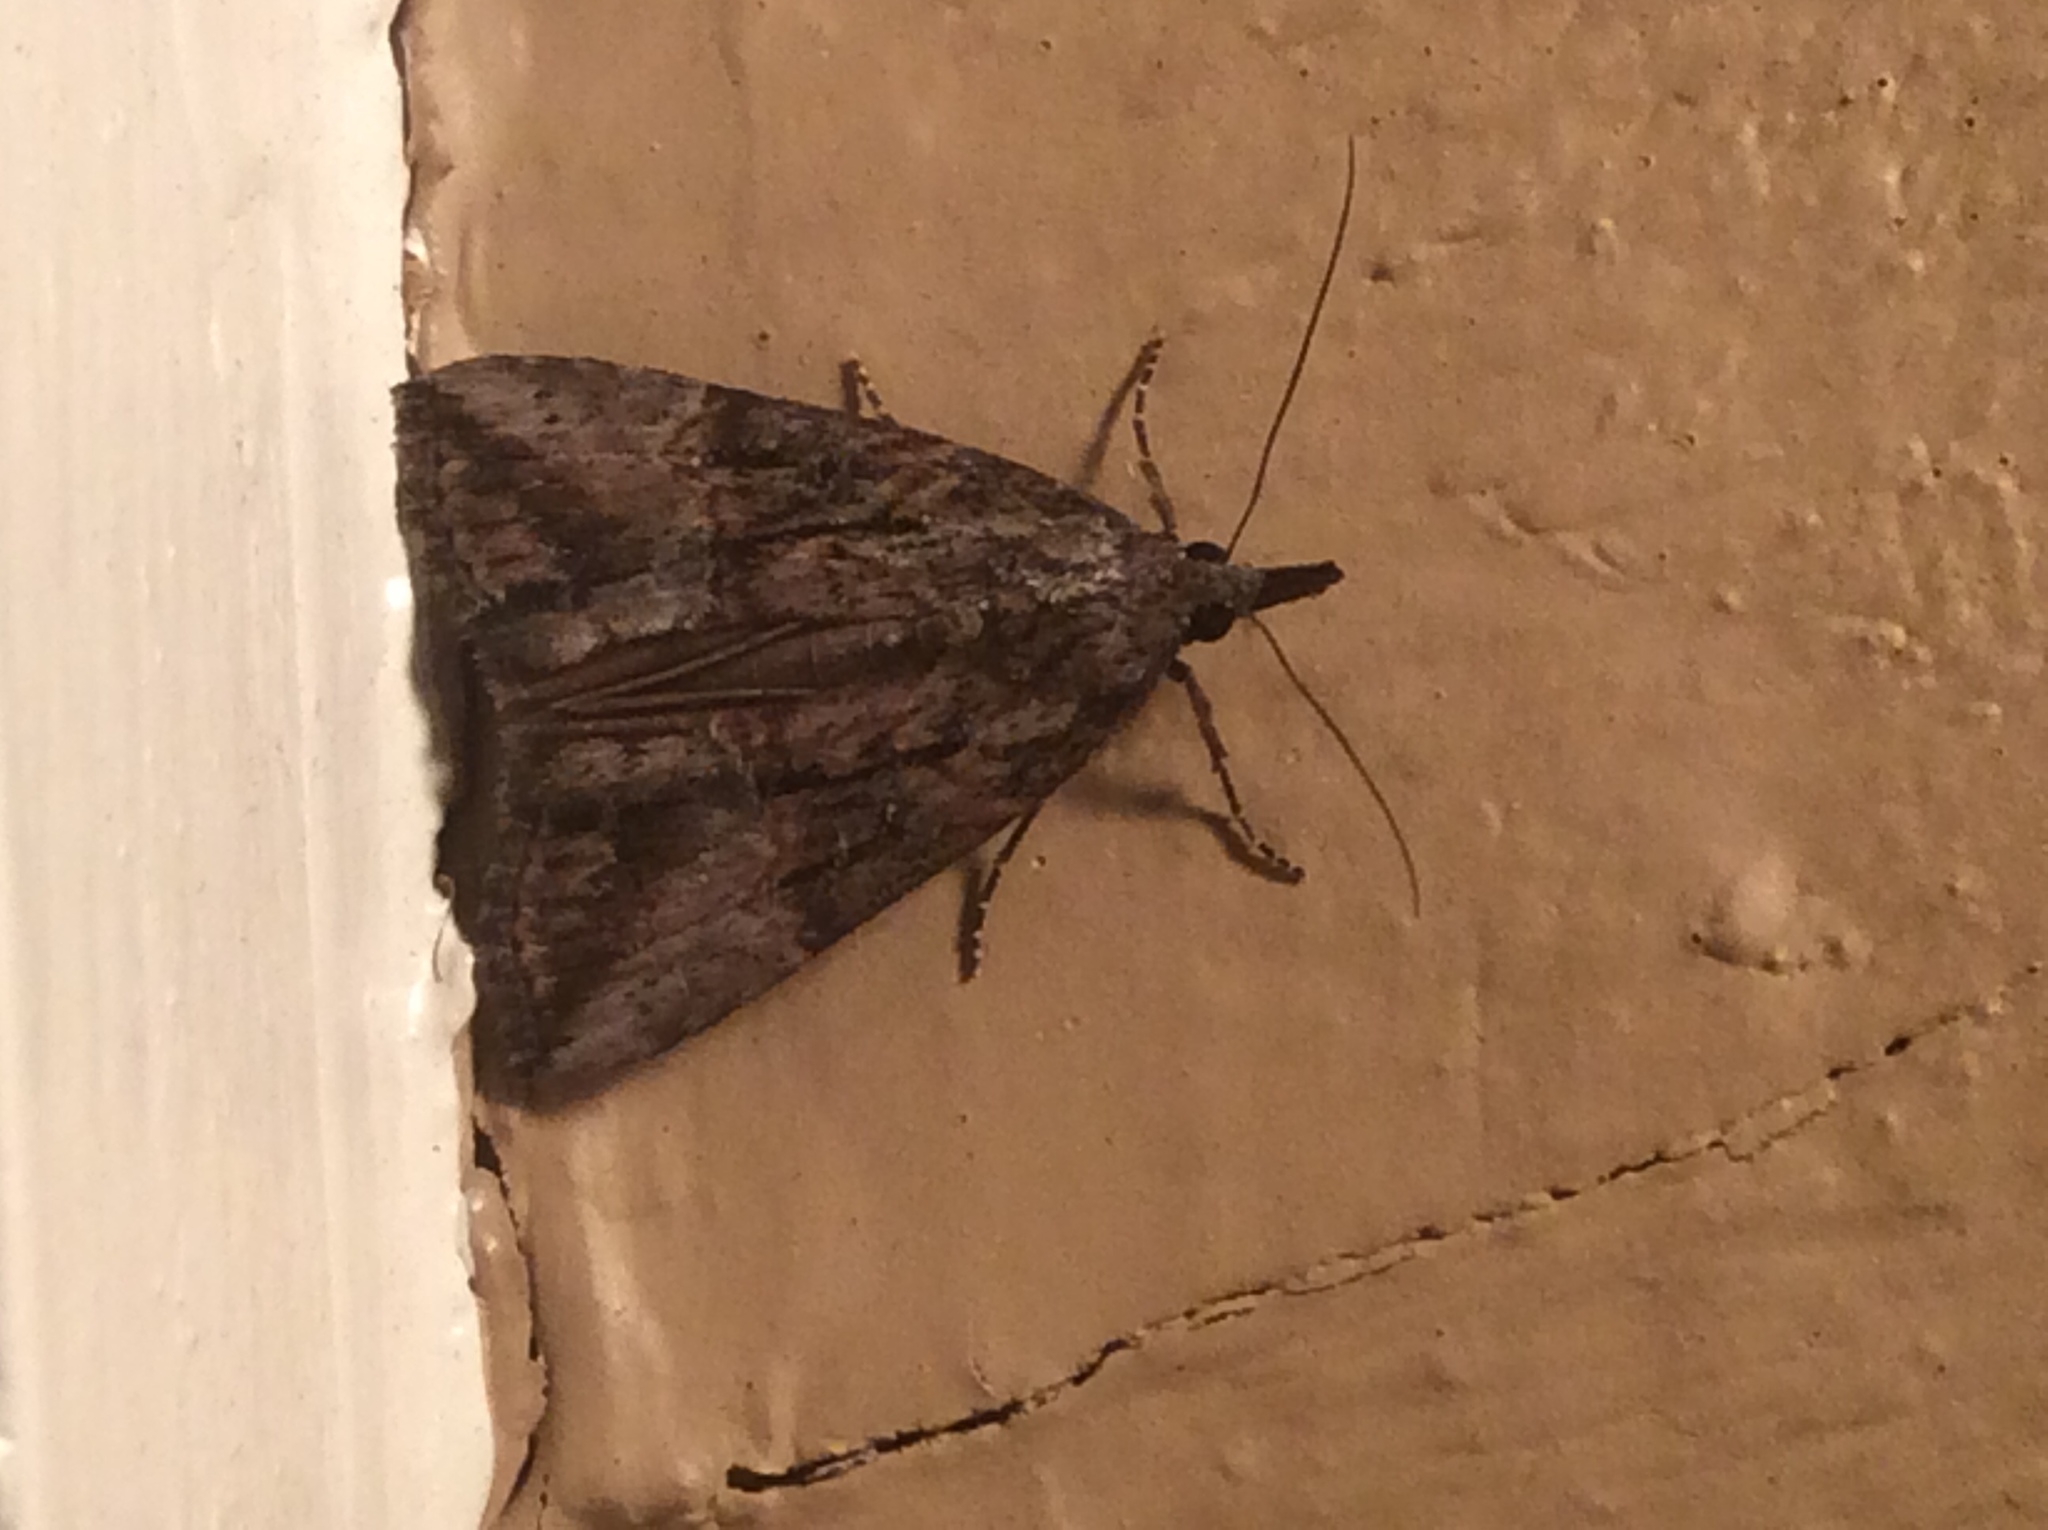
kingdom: Animalia
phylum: Arthropoda
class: Insecta
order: Lepidoptera
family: Erebidae
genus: Hypena
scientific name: Hypena scabra
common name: Green cloverworm
